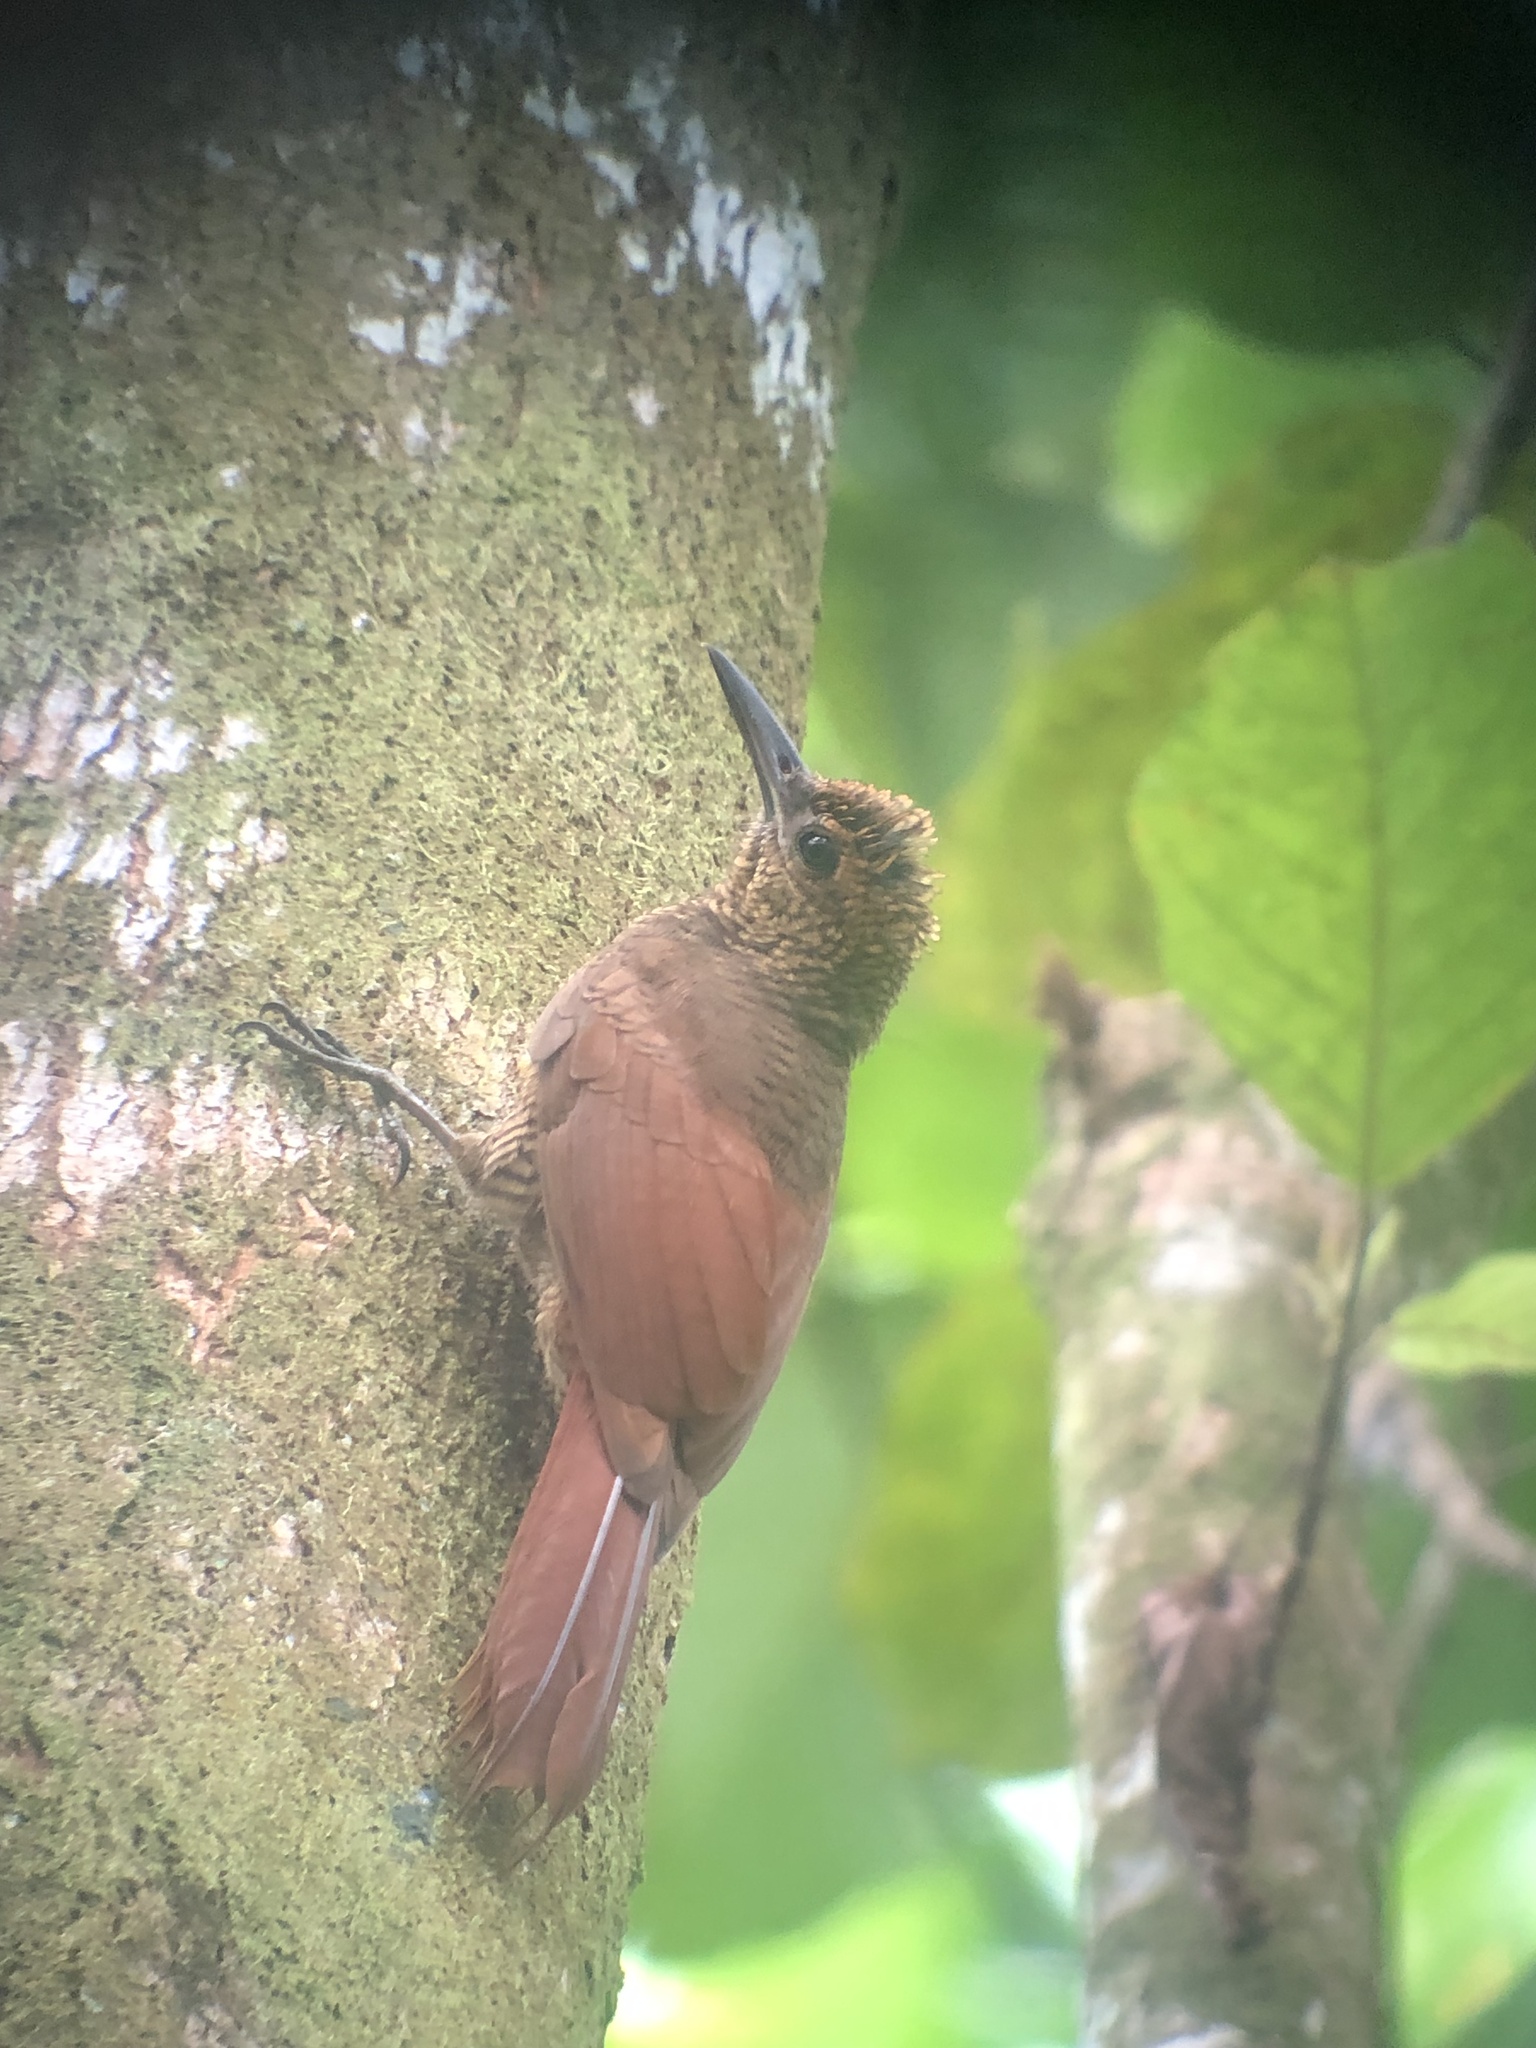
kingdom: Animalia
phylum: Chordata
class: Aves
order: Passeriformes
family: Furnariidae
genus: Dendrocolaptes
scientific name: Dendrocolaptes sanctithomae
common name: Northern barred-woodcreeper
